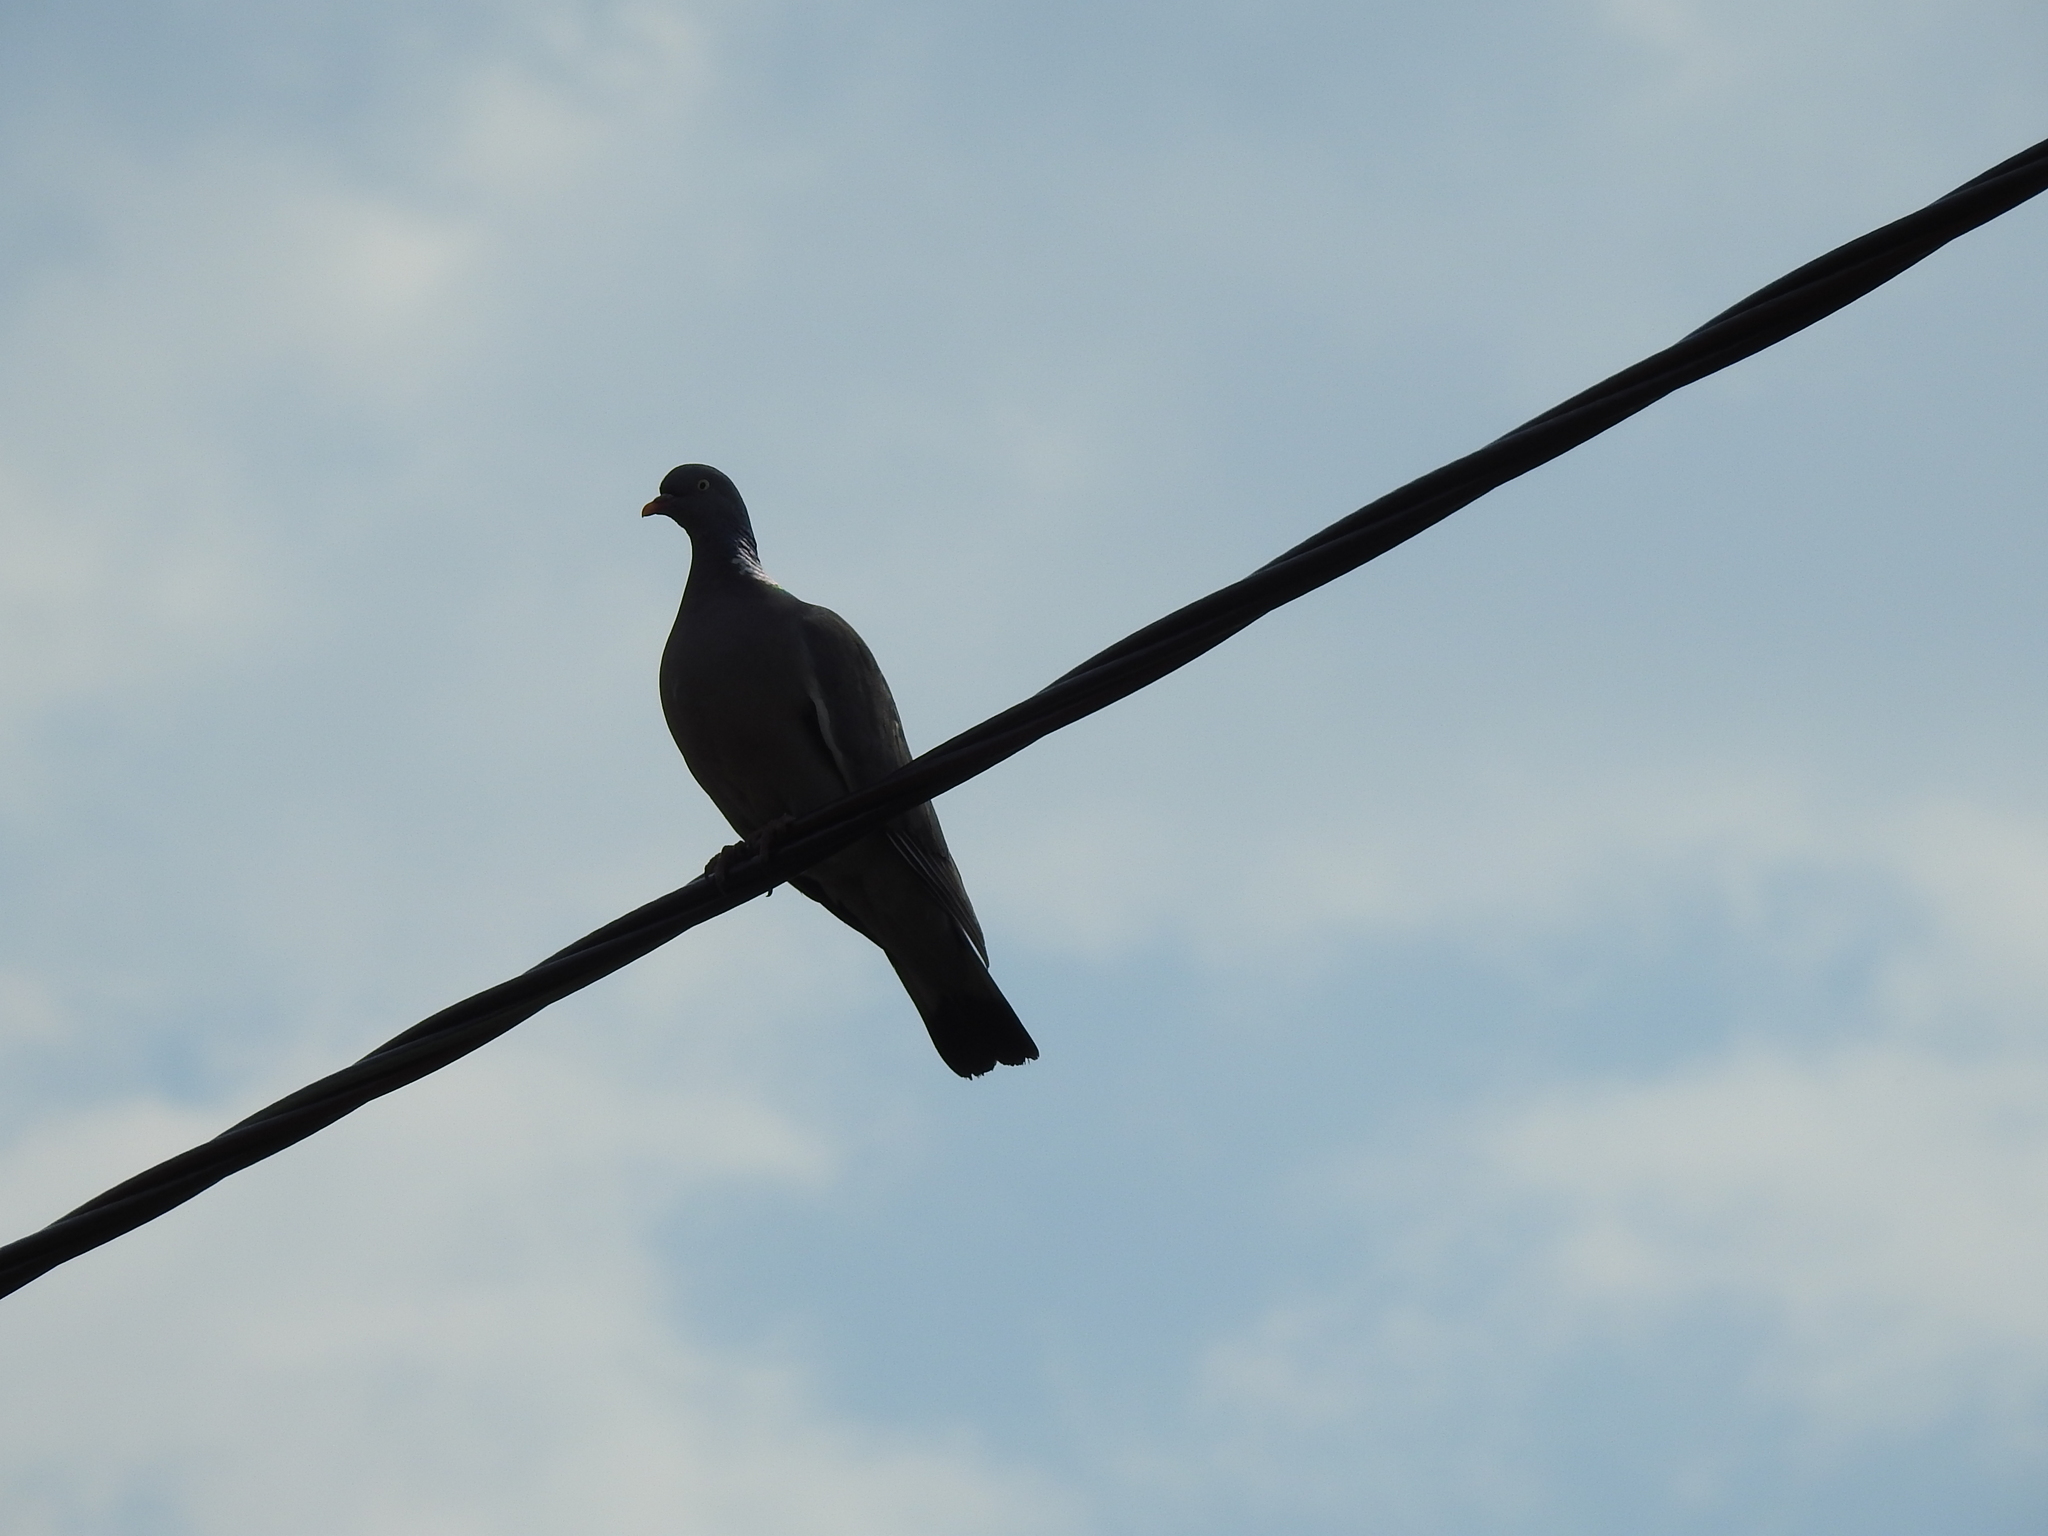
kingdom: Animalia
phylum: Chordata
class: Aves
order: Columbiformes
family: Columbidae
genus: Columba
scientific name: Columba palumbus
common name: Common wood pigeon
